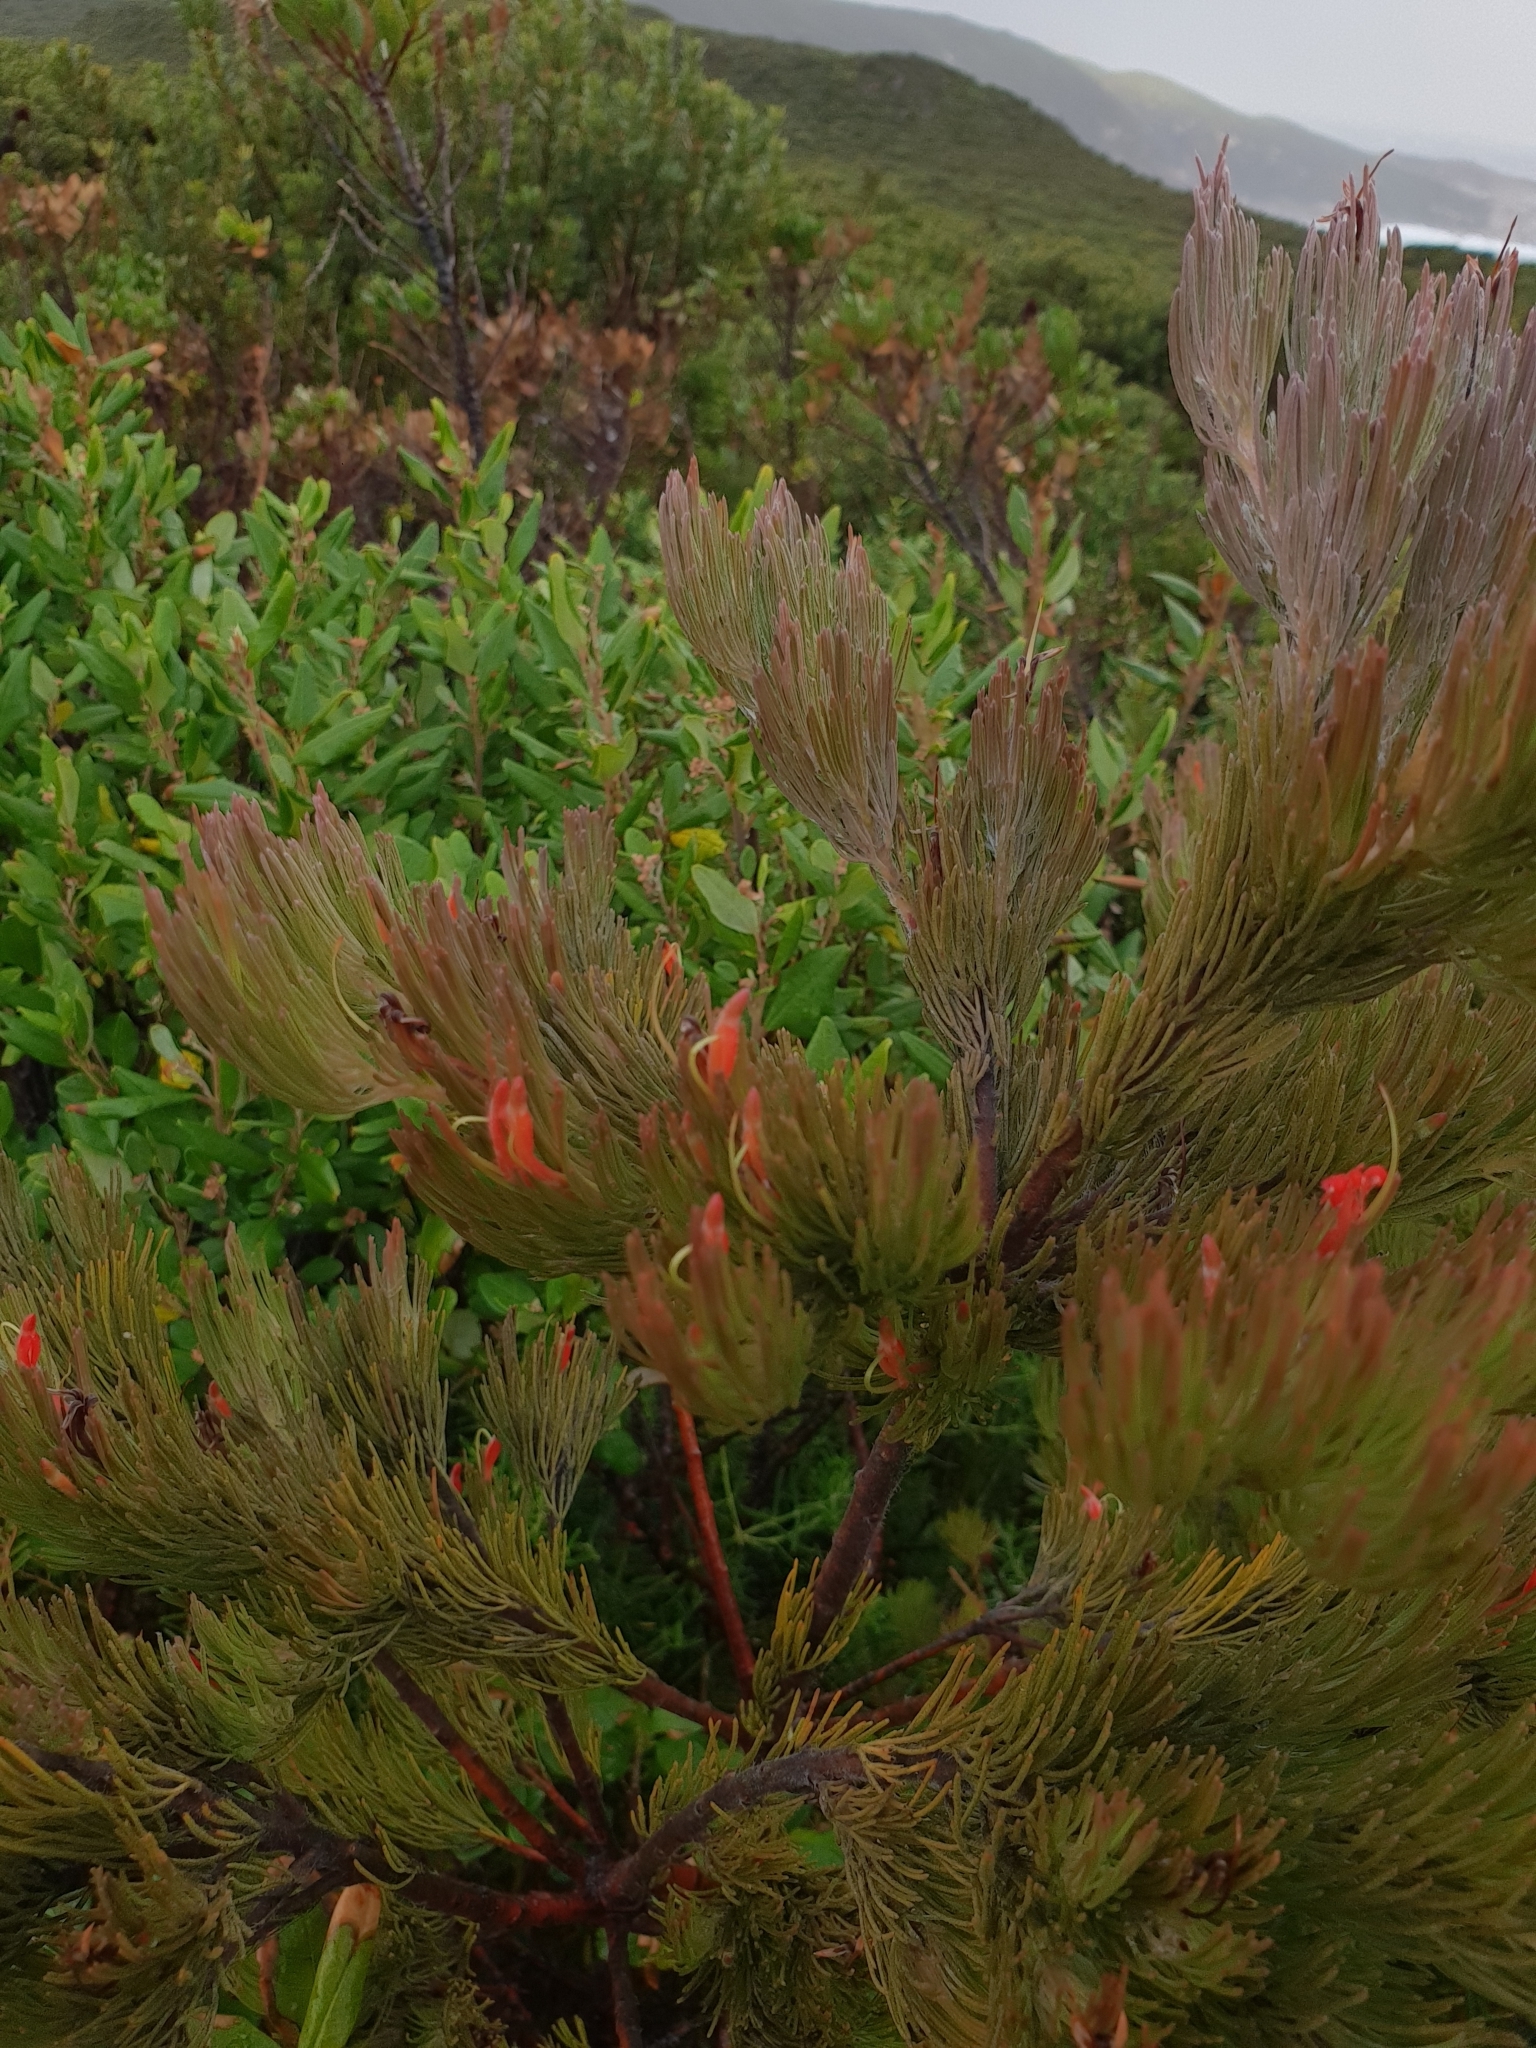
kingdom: Plantae
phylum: Tracheophyta
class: Magnoliopsida
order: Proteales
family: Proteaceae
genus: Adenanthos
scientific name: Adenanthos sericeus
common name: Coastal woollybush
